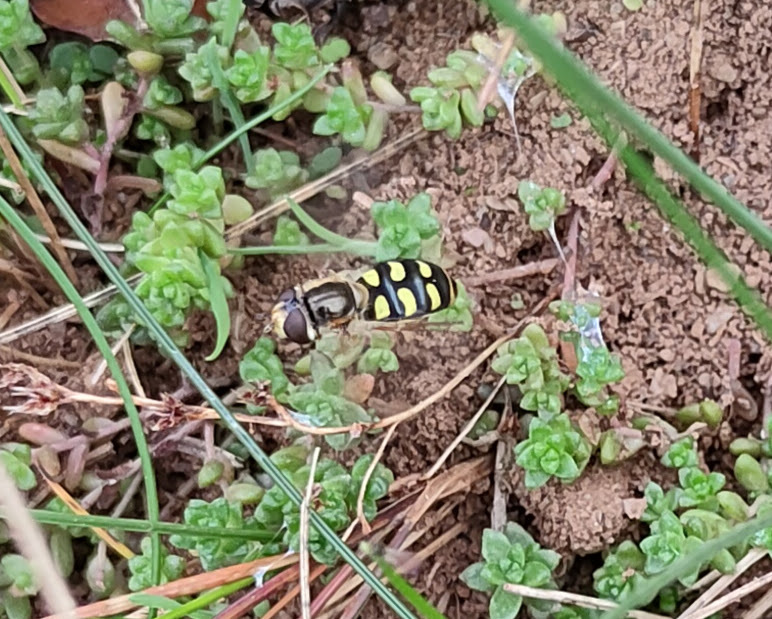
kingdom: Animalia
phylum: Arthropoda
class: Insecta
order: Diptera
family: Syrphidae
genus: Eupeodes
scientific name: Eupeodes luniger
